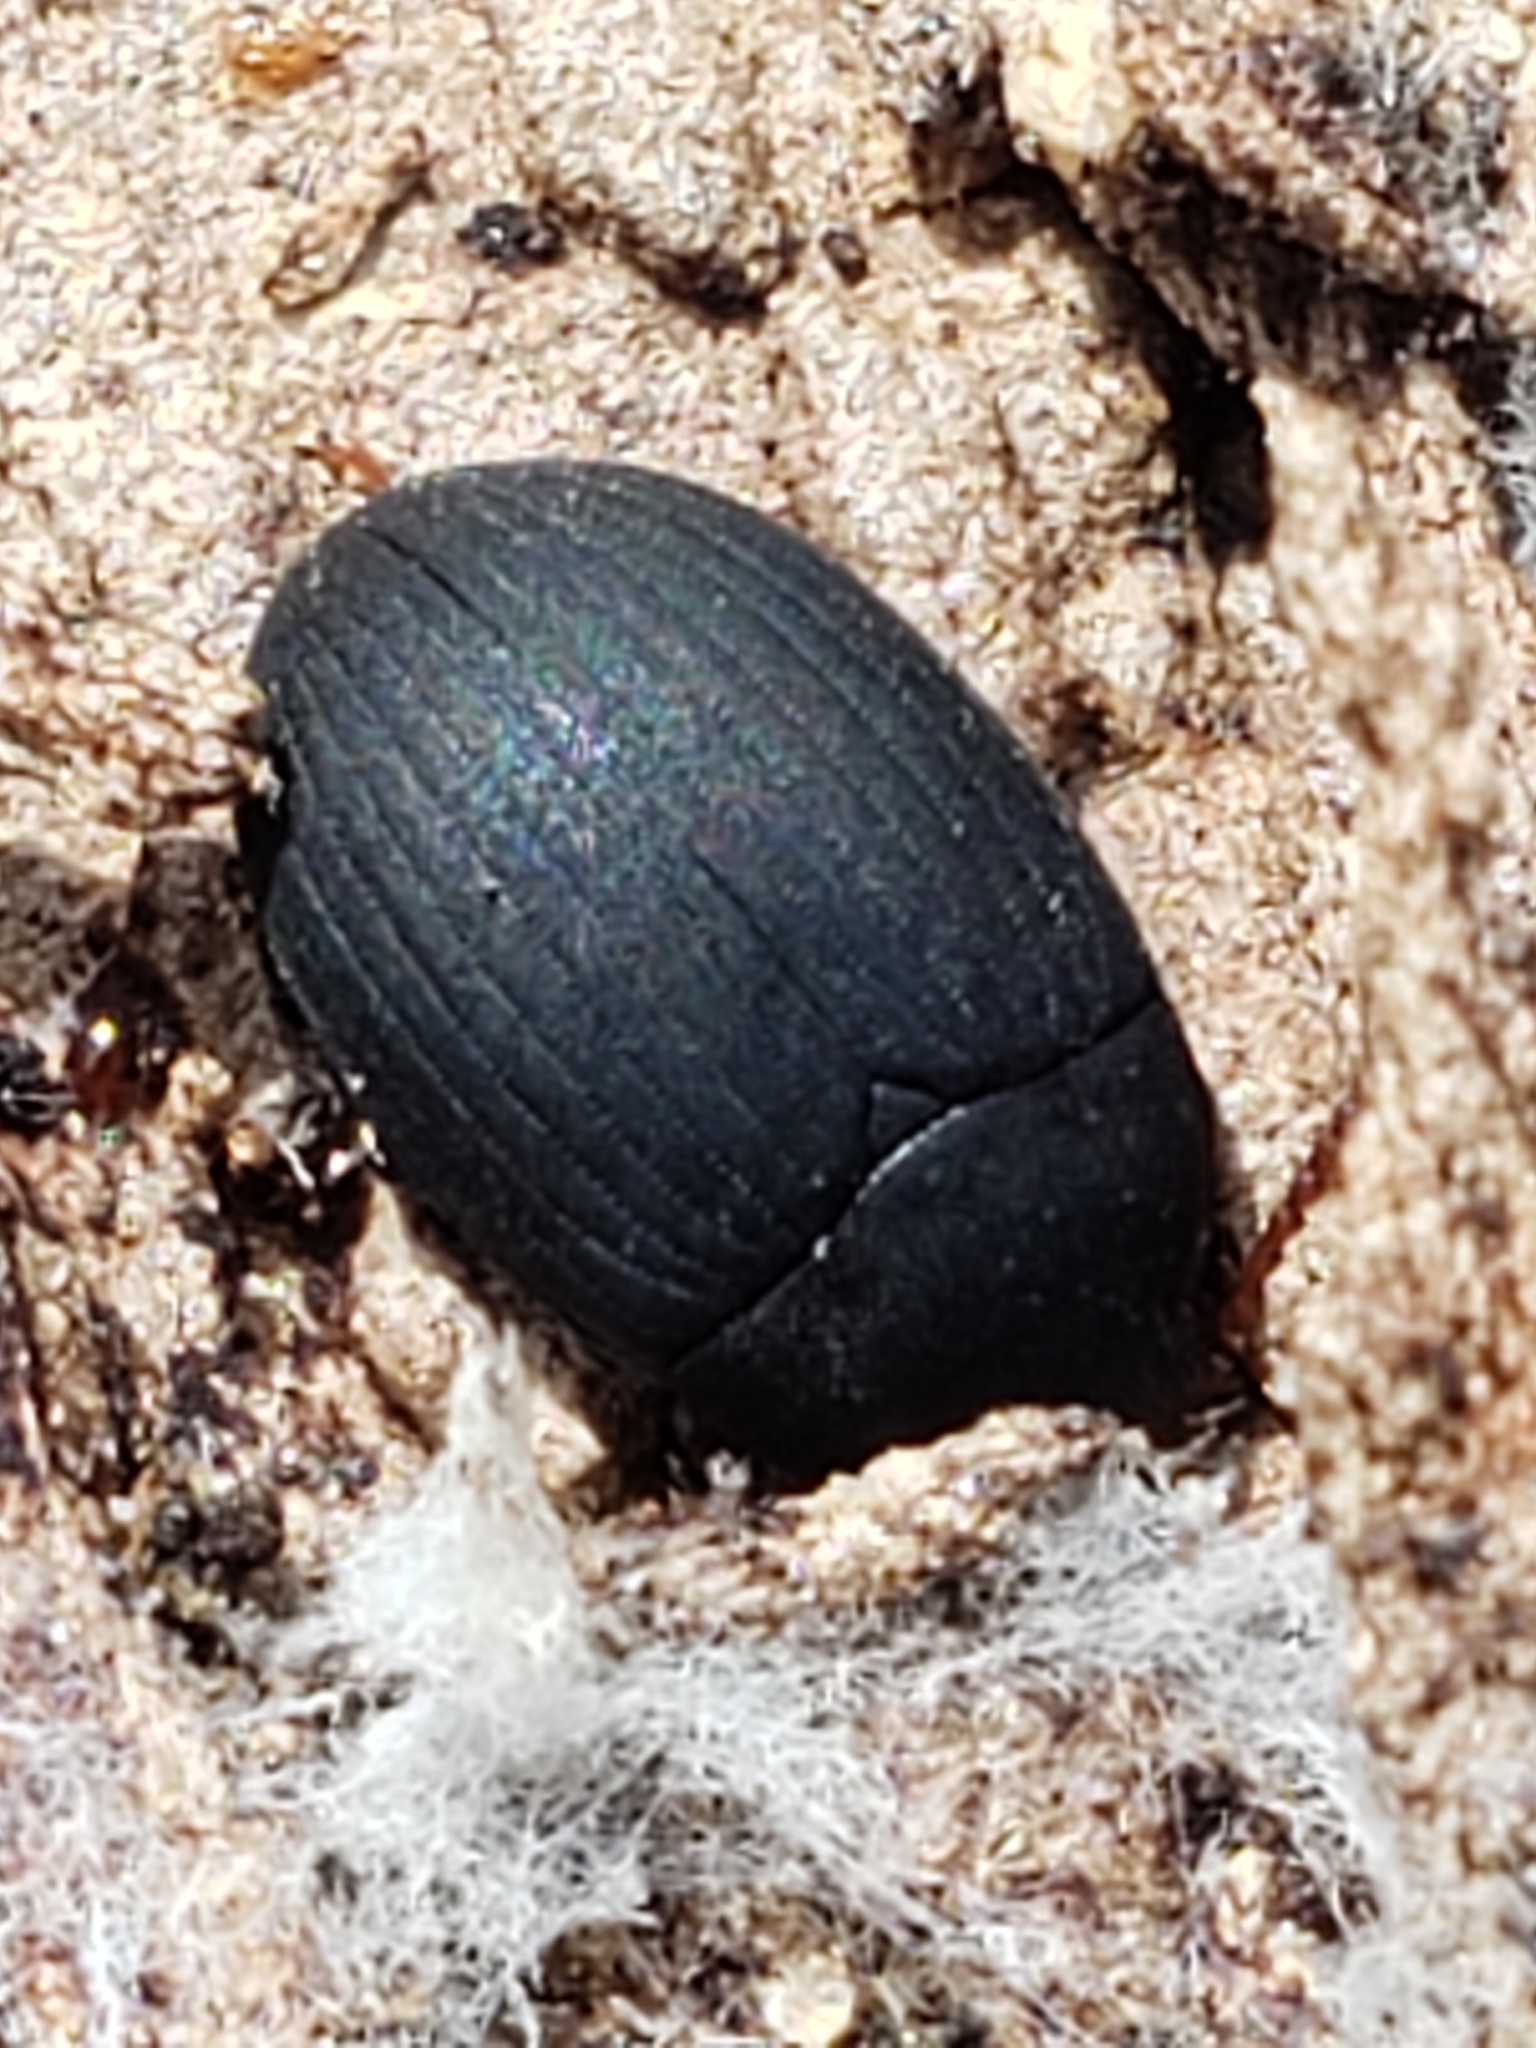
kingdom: Animalia
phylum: Arthropoda
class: Insecta
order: Coleoptera
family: Tenebrionidae
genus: Platydema
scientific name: Platydema ruficornis
